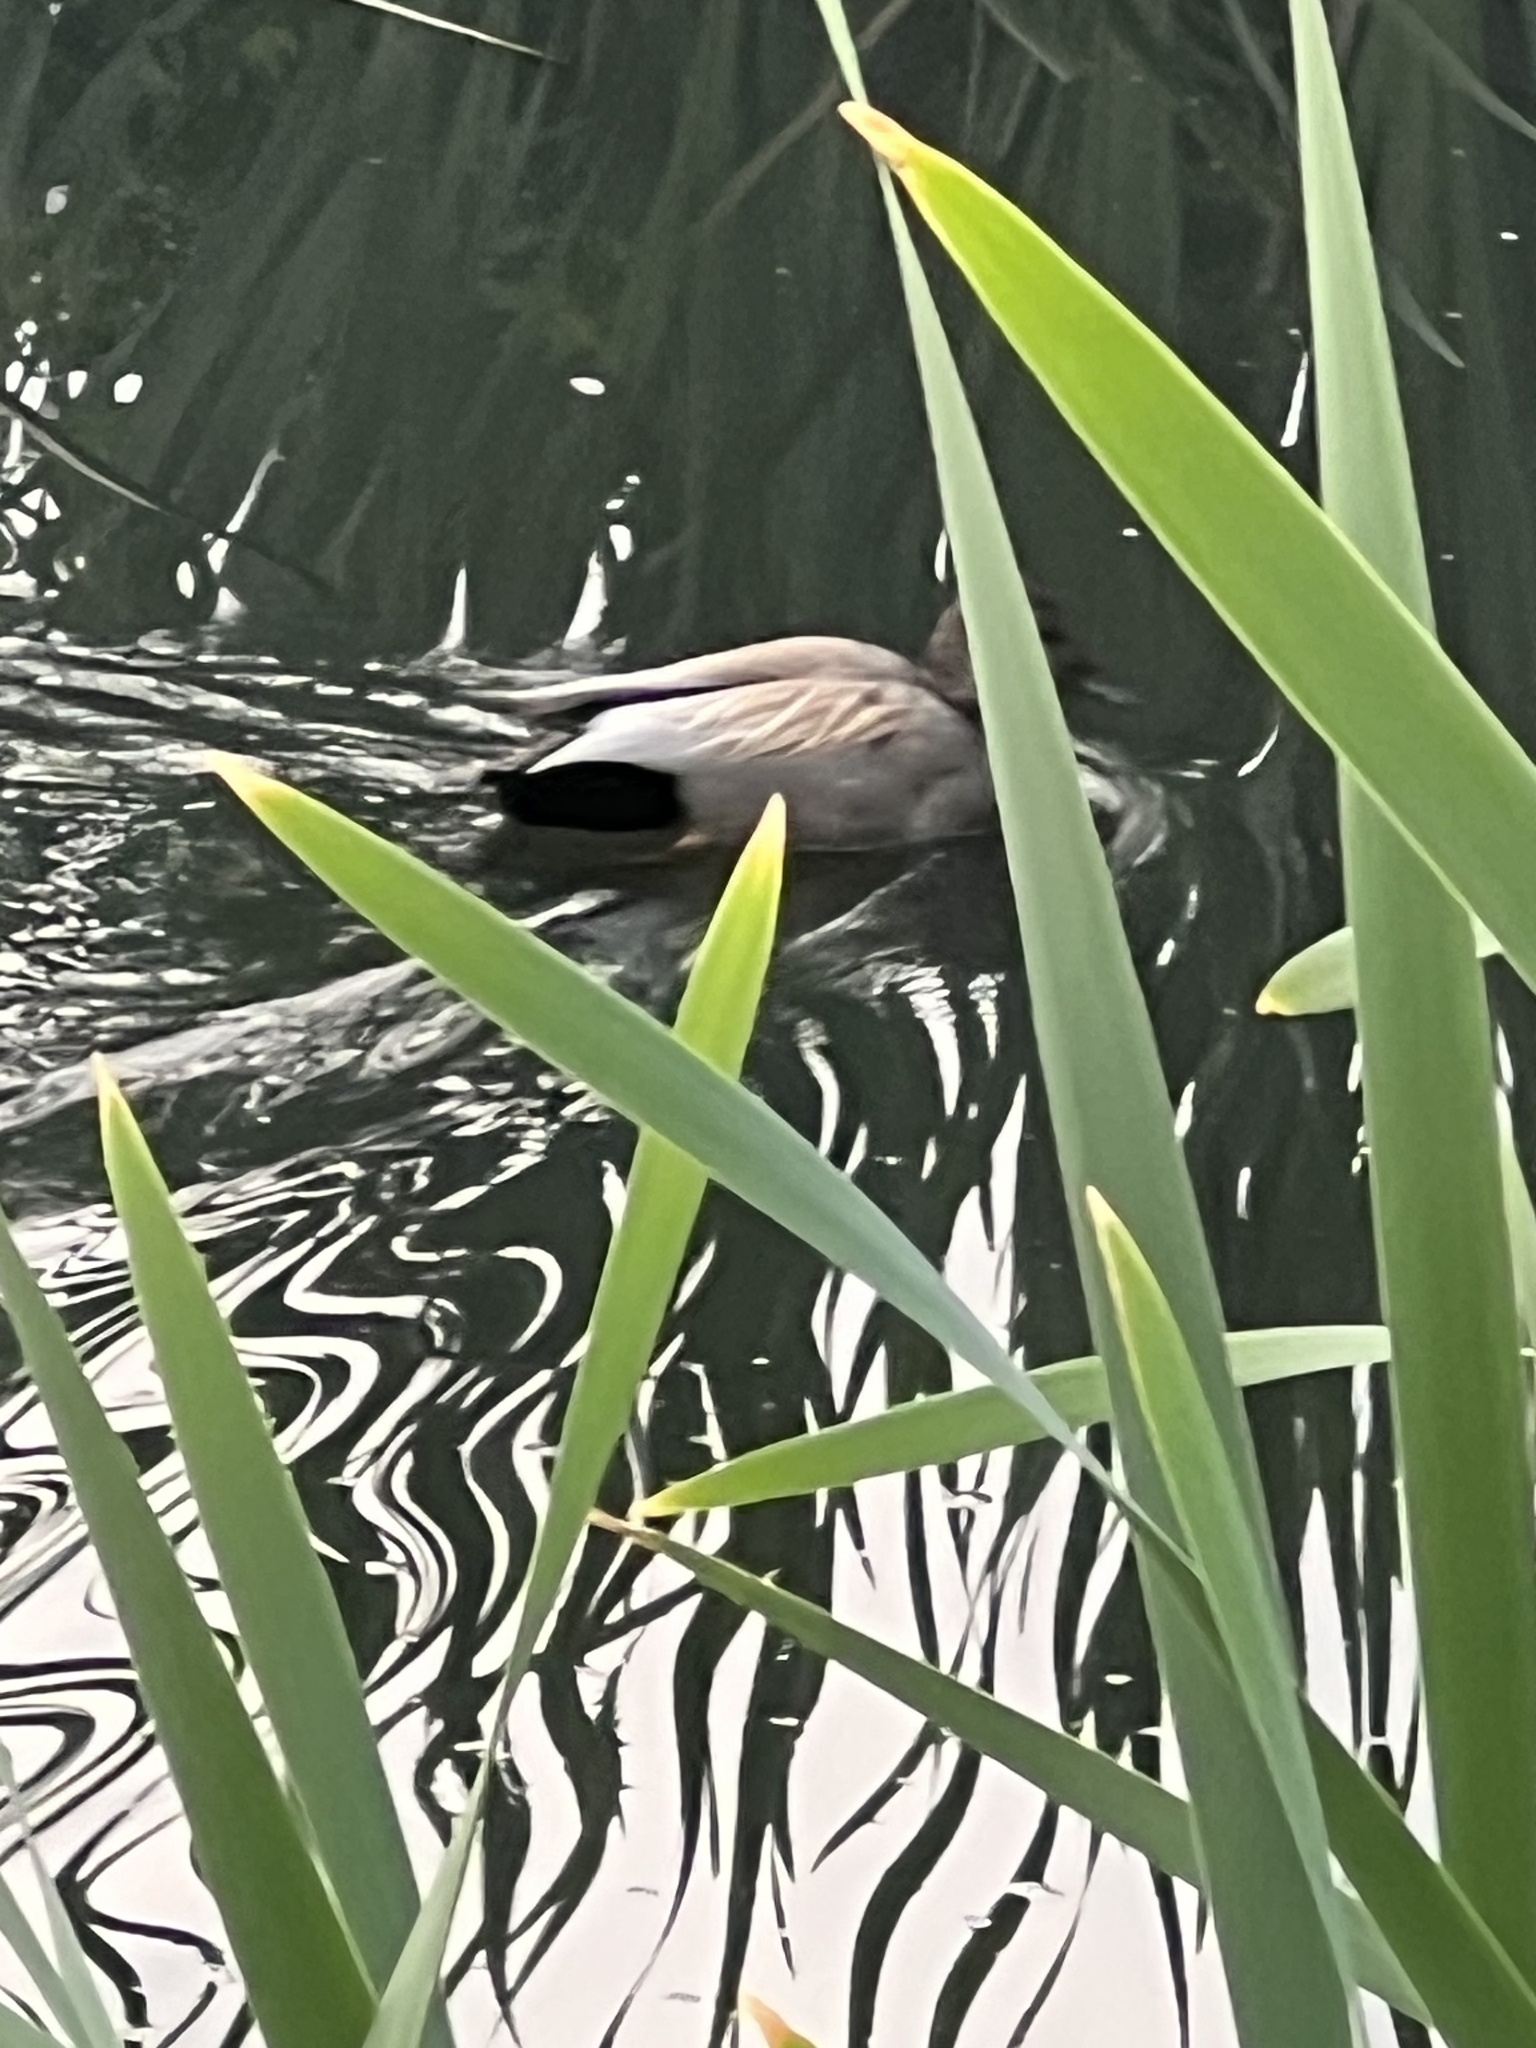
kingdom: Animalia
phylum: Chordata
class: Aves
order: Anseriformes
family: Anatidae
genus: Mareca
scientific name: Mareca strepera
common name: Gadwall
